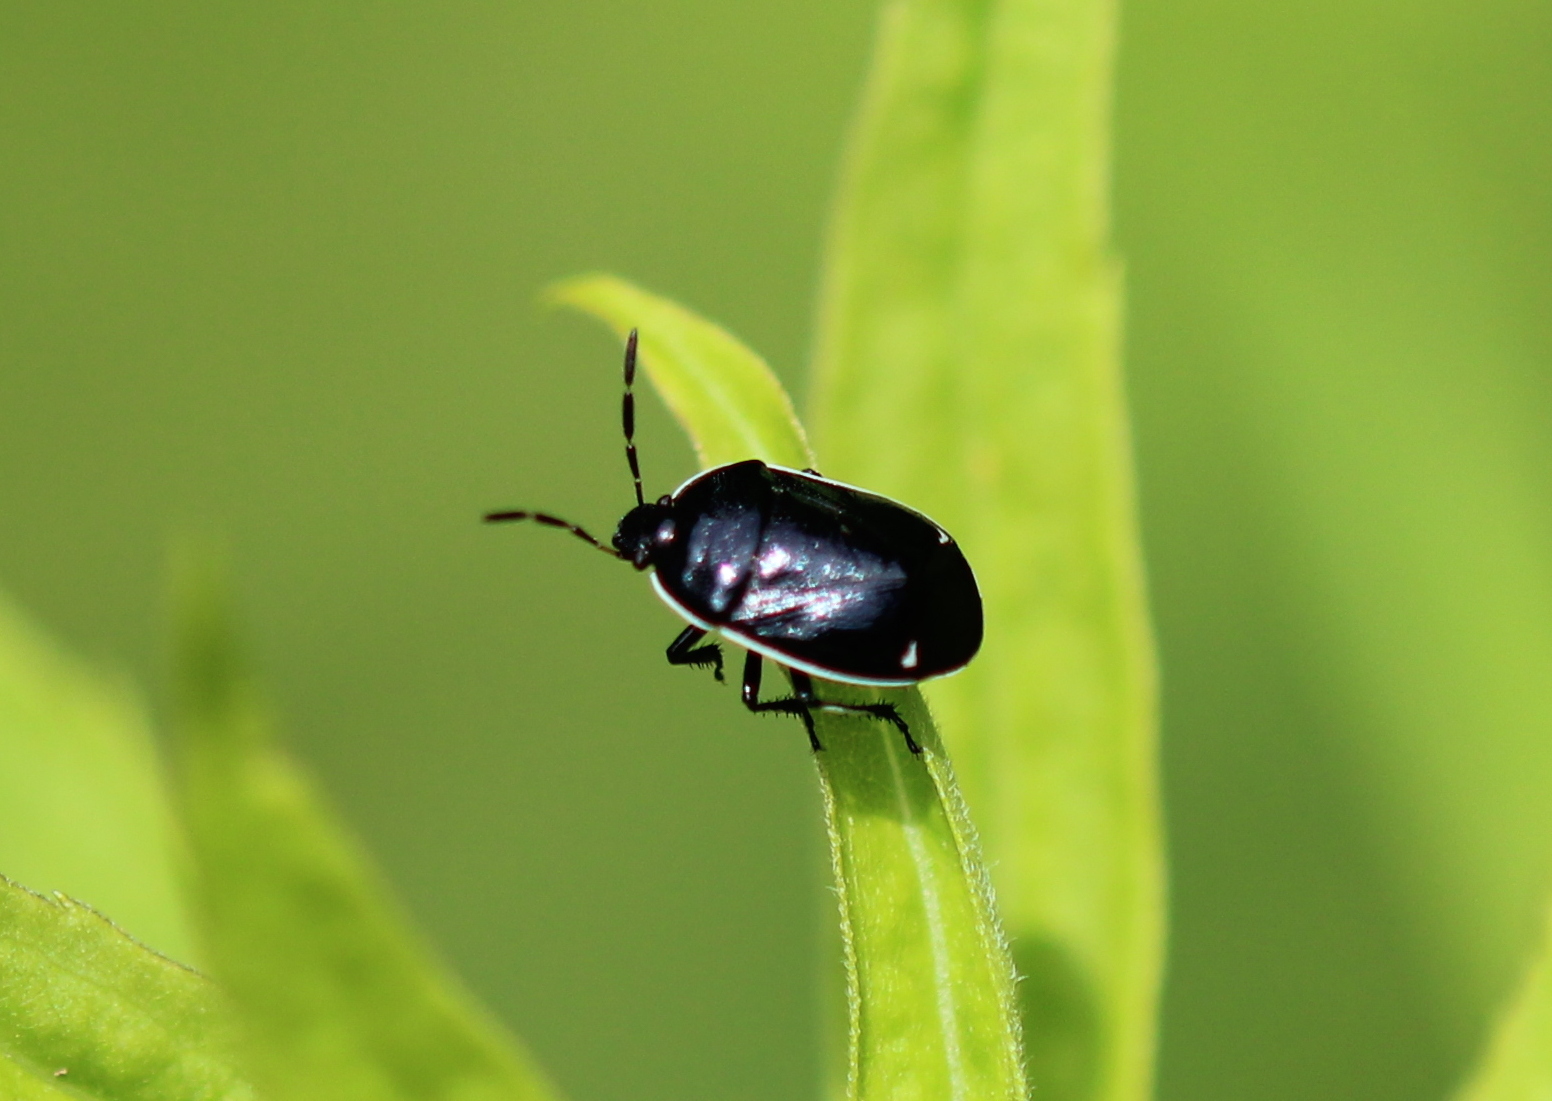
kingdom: Animalia
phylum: Arthropoda
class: Insecta
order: Hemiptera
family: Cydnidae
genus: Sehirus
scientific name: Sehirus cinctus
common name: White-margined burrower bug
